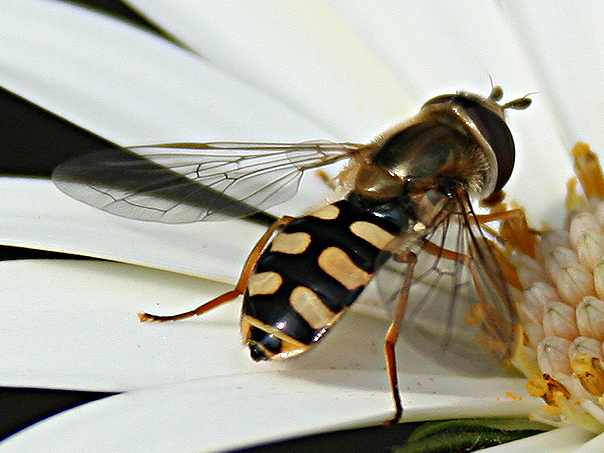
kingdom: Animalia
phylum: Arthropoda
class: Insecta
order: Diptera
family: Syrphidae
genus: Eupeodes
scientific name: Eupeodes corollae
